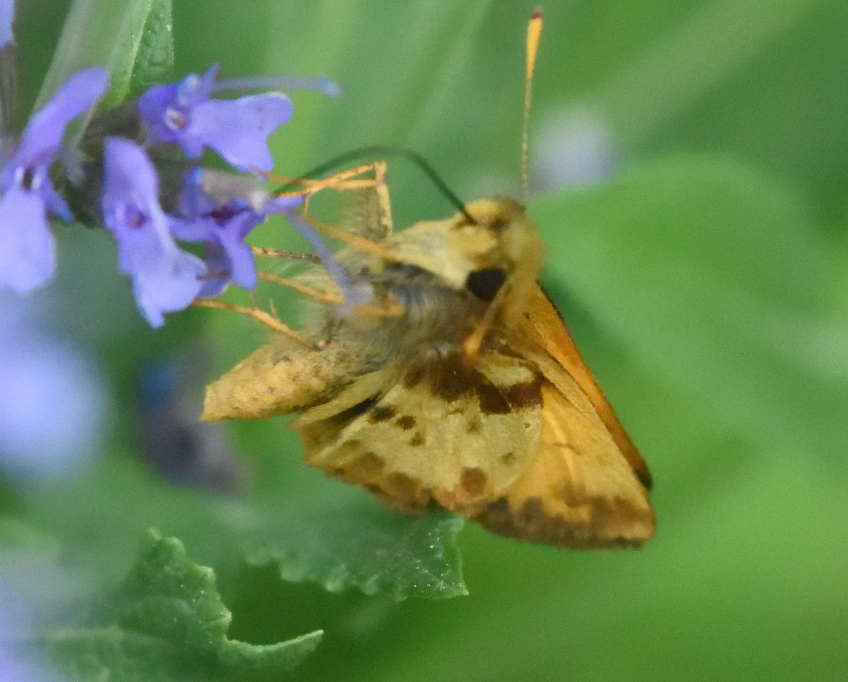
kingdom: Animalia
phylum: Arthropoda
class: Insecta
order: Lepidoptera
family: Hesperiidae
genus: Lon
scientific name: Lon zabulon
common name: Zabulon skipper
